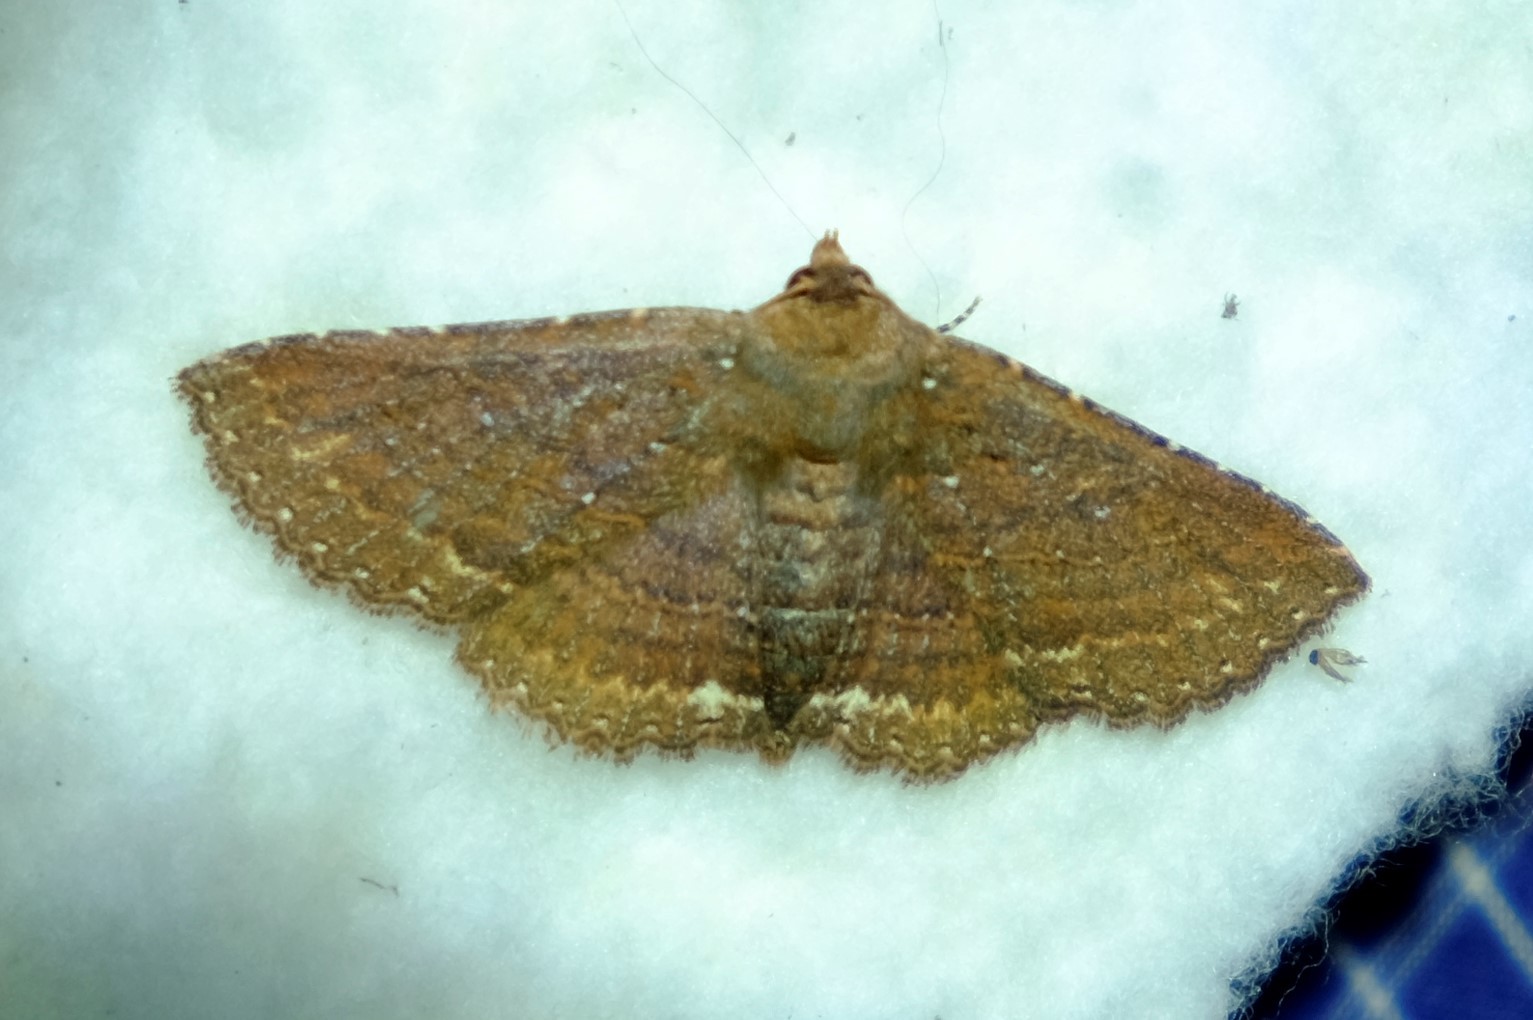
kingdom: Animalia
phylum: Arthropoda
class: Insecta
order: Lepidoptera
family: Erebidae
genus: Praxis
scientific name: Praxis porphyretica
